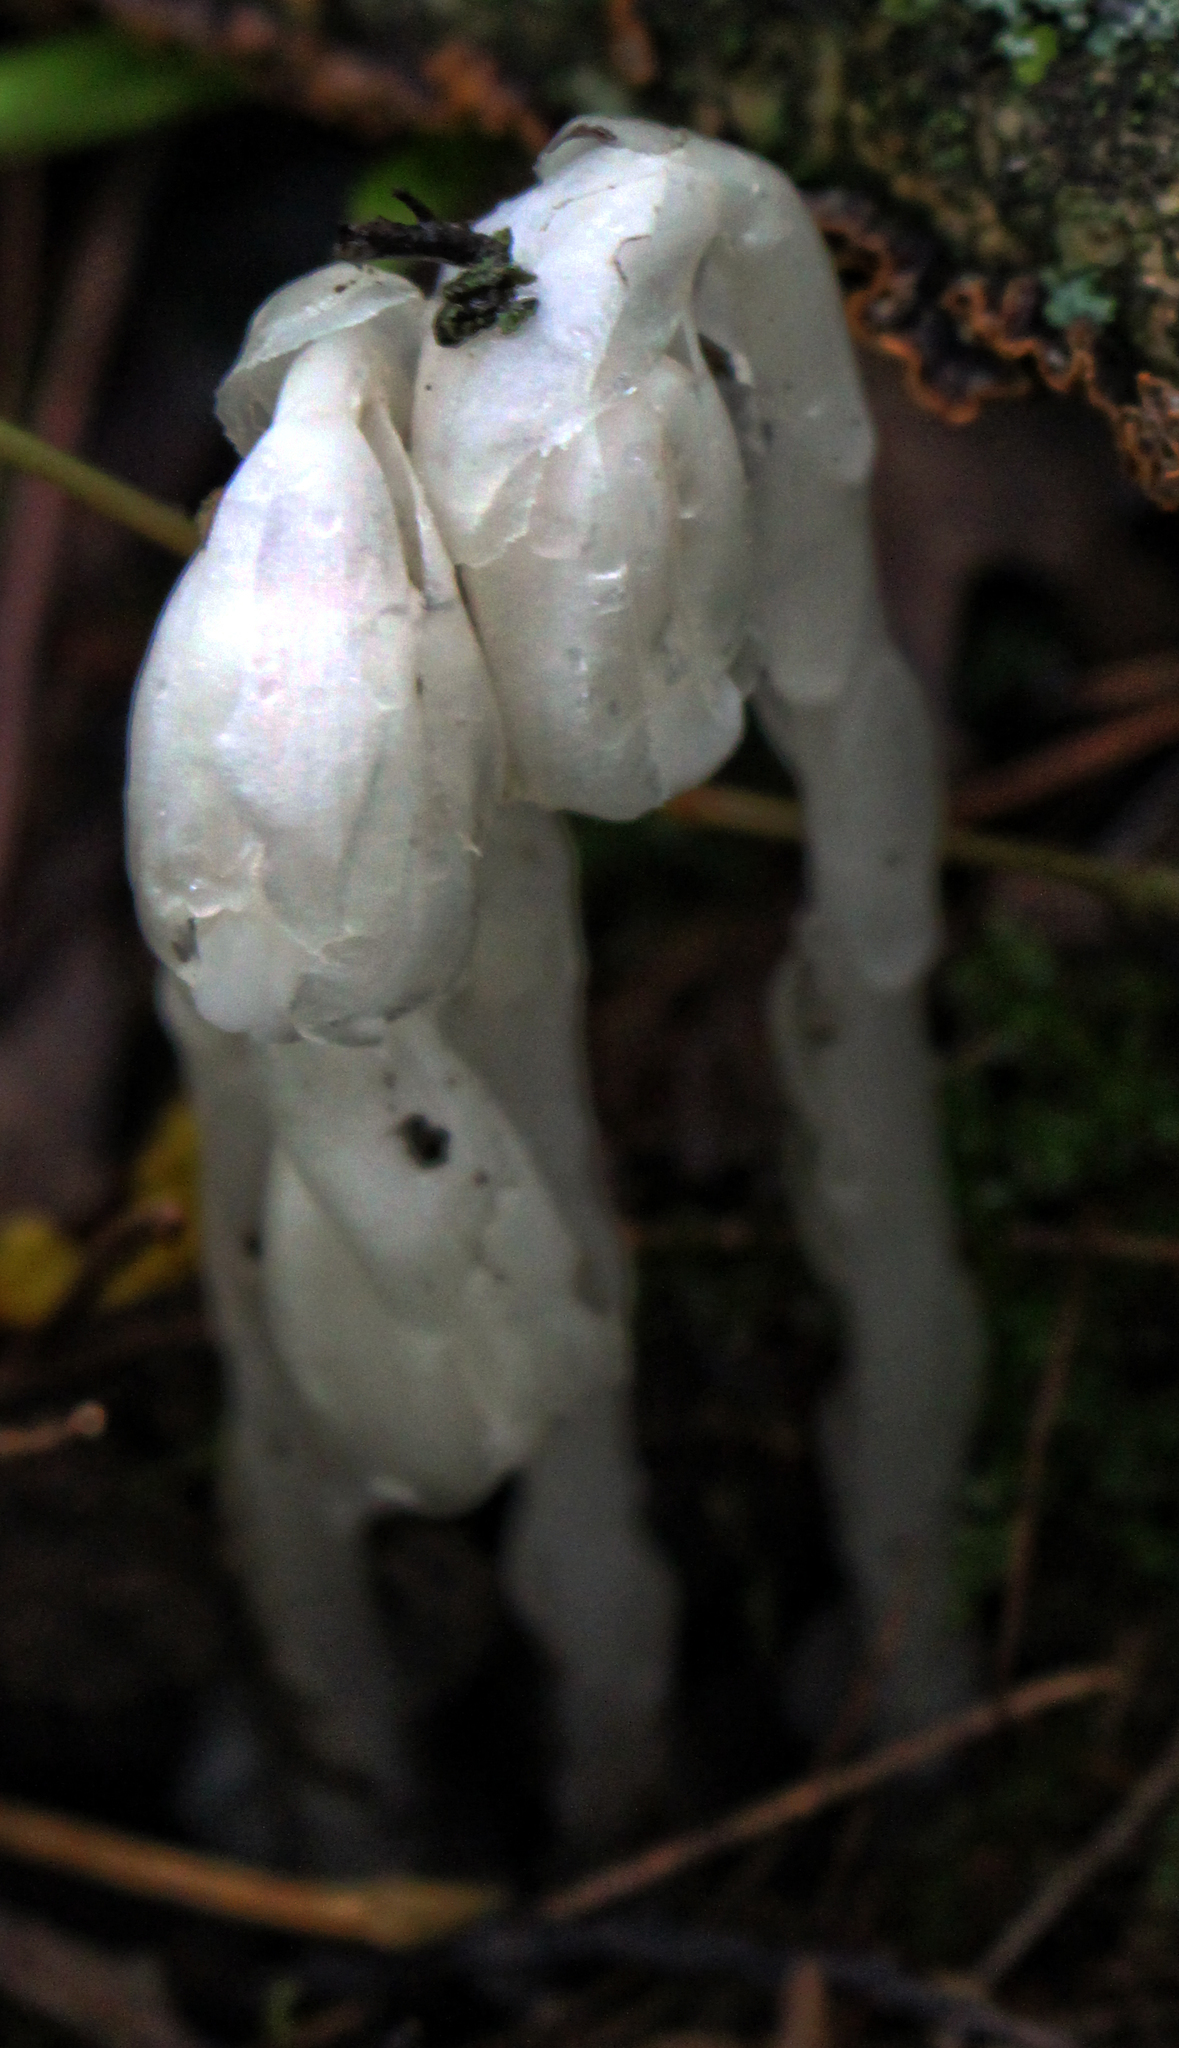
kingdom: Plantae
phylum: Tracheophyta
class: Magnoliopsida
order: Ericales
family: Ericaceae
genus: Monotropa
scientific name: Monotropa uniflora
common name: Convulsion root
